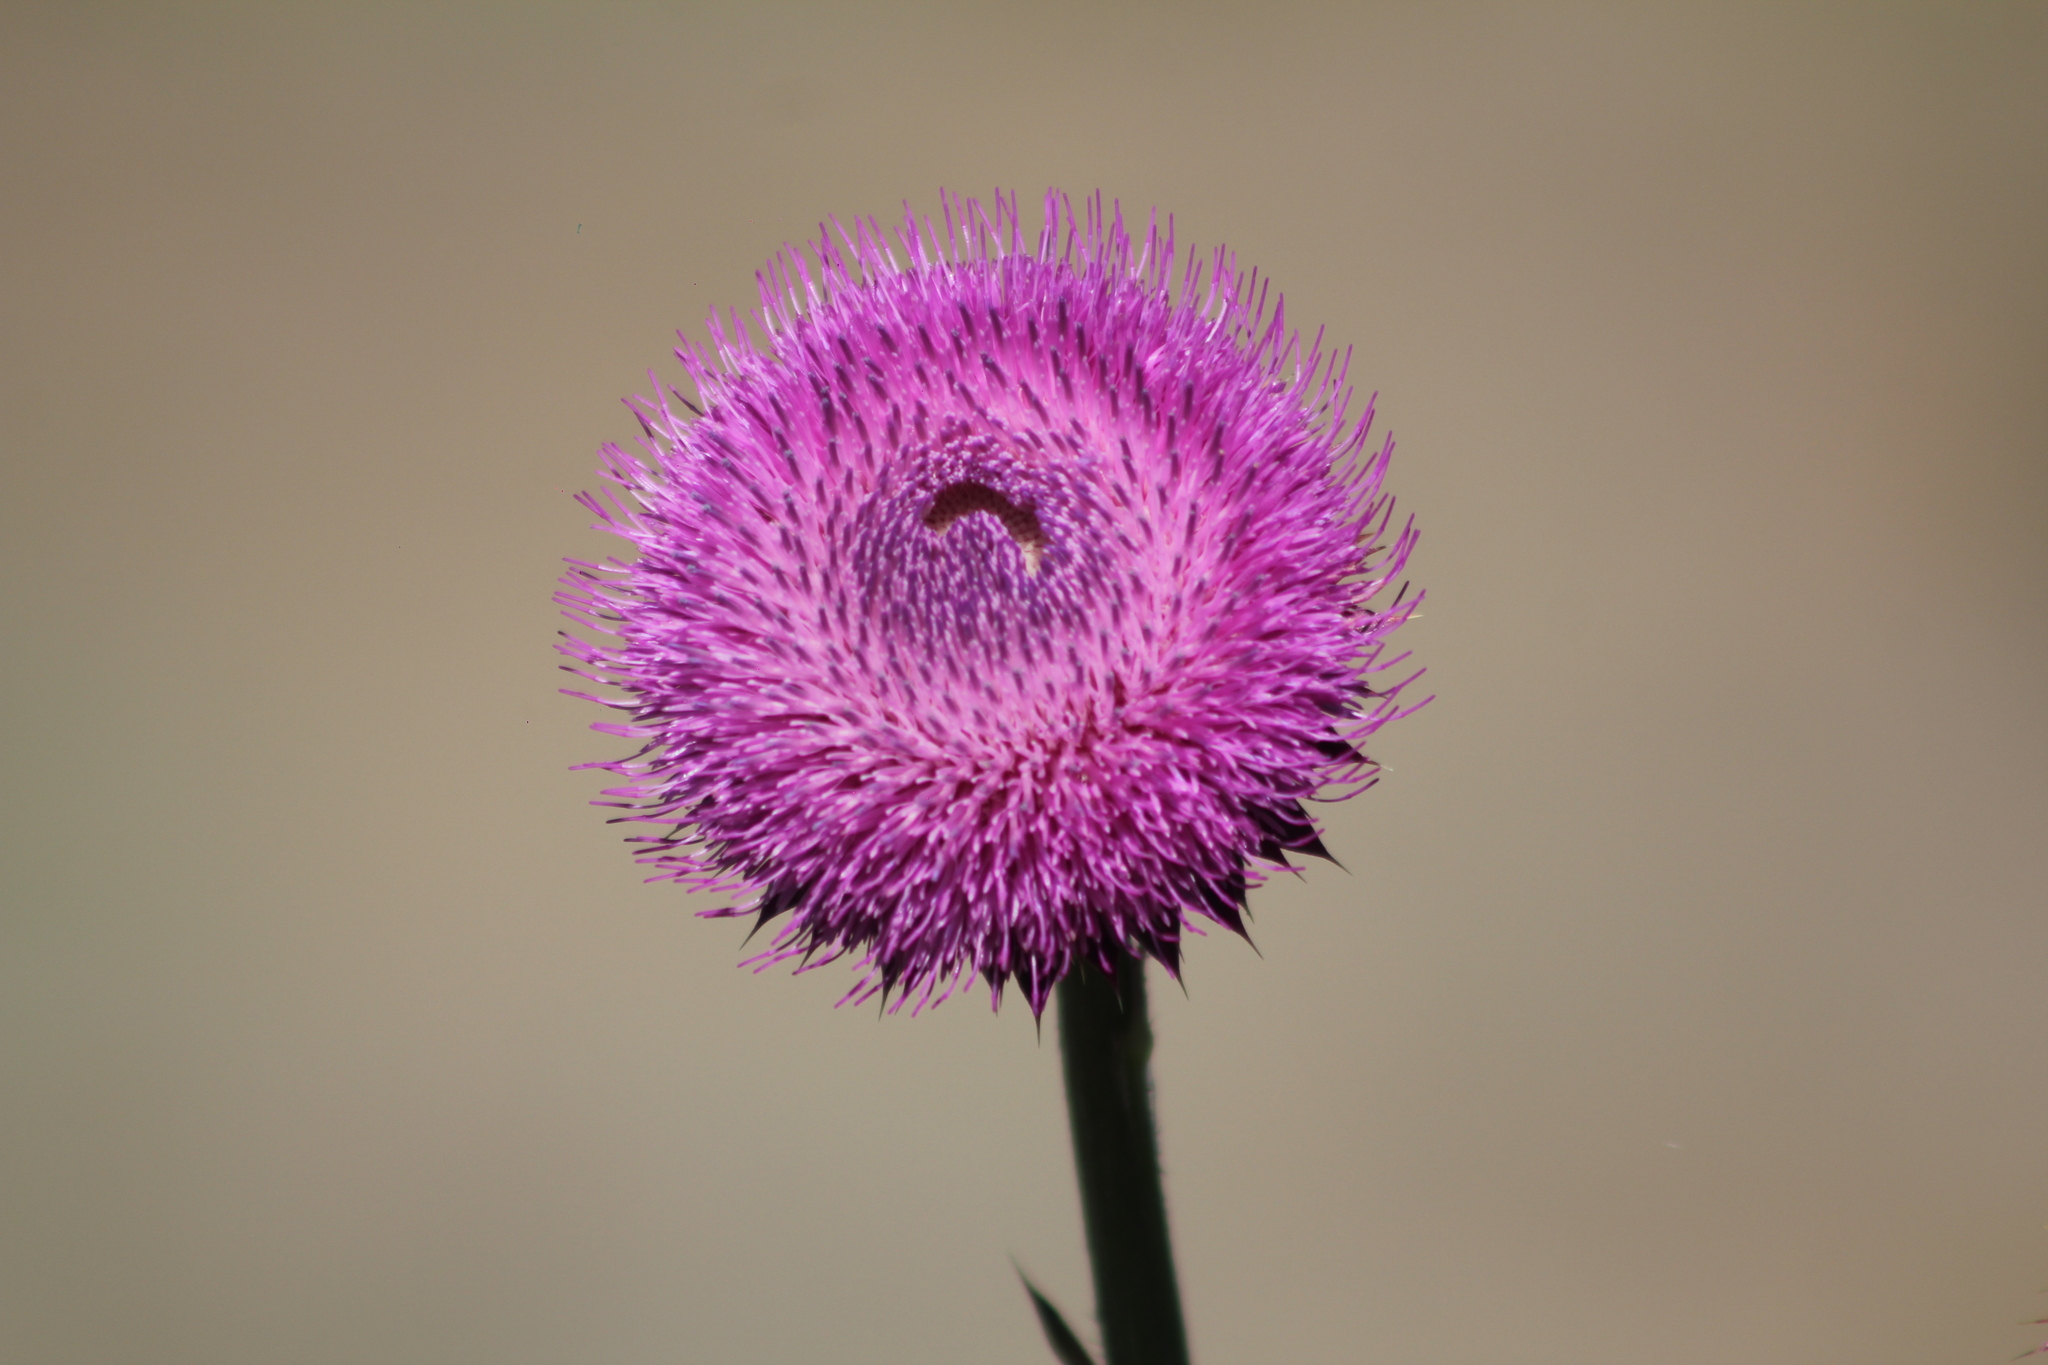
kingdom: Plantae
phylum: Tracheophyta
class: Magnoliopsida
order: Asterales
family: Asteraceae
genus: Carduus
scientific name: Carduus nutans
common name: Musk thistle
